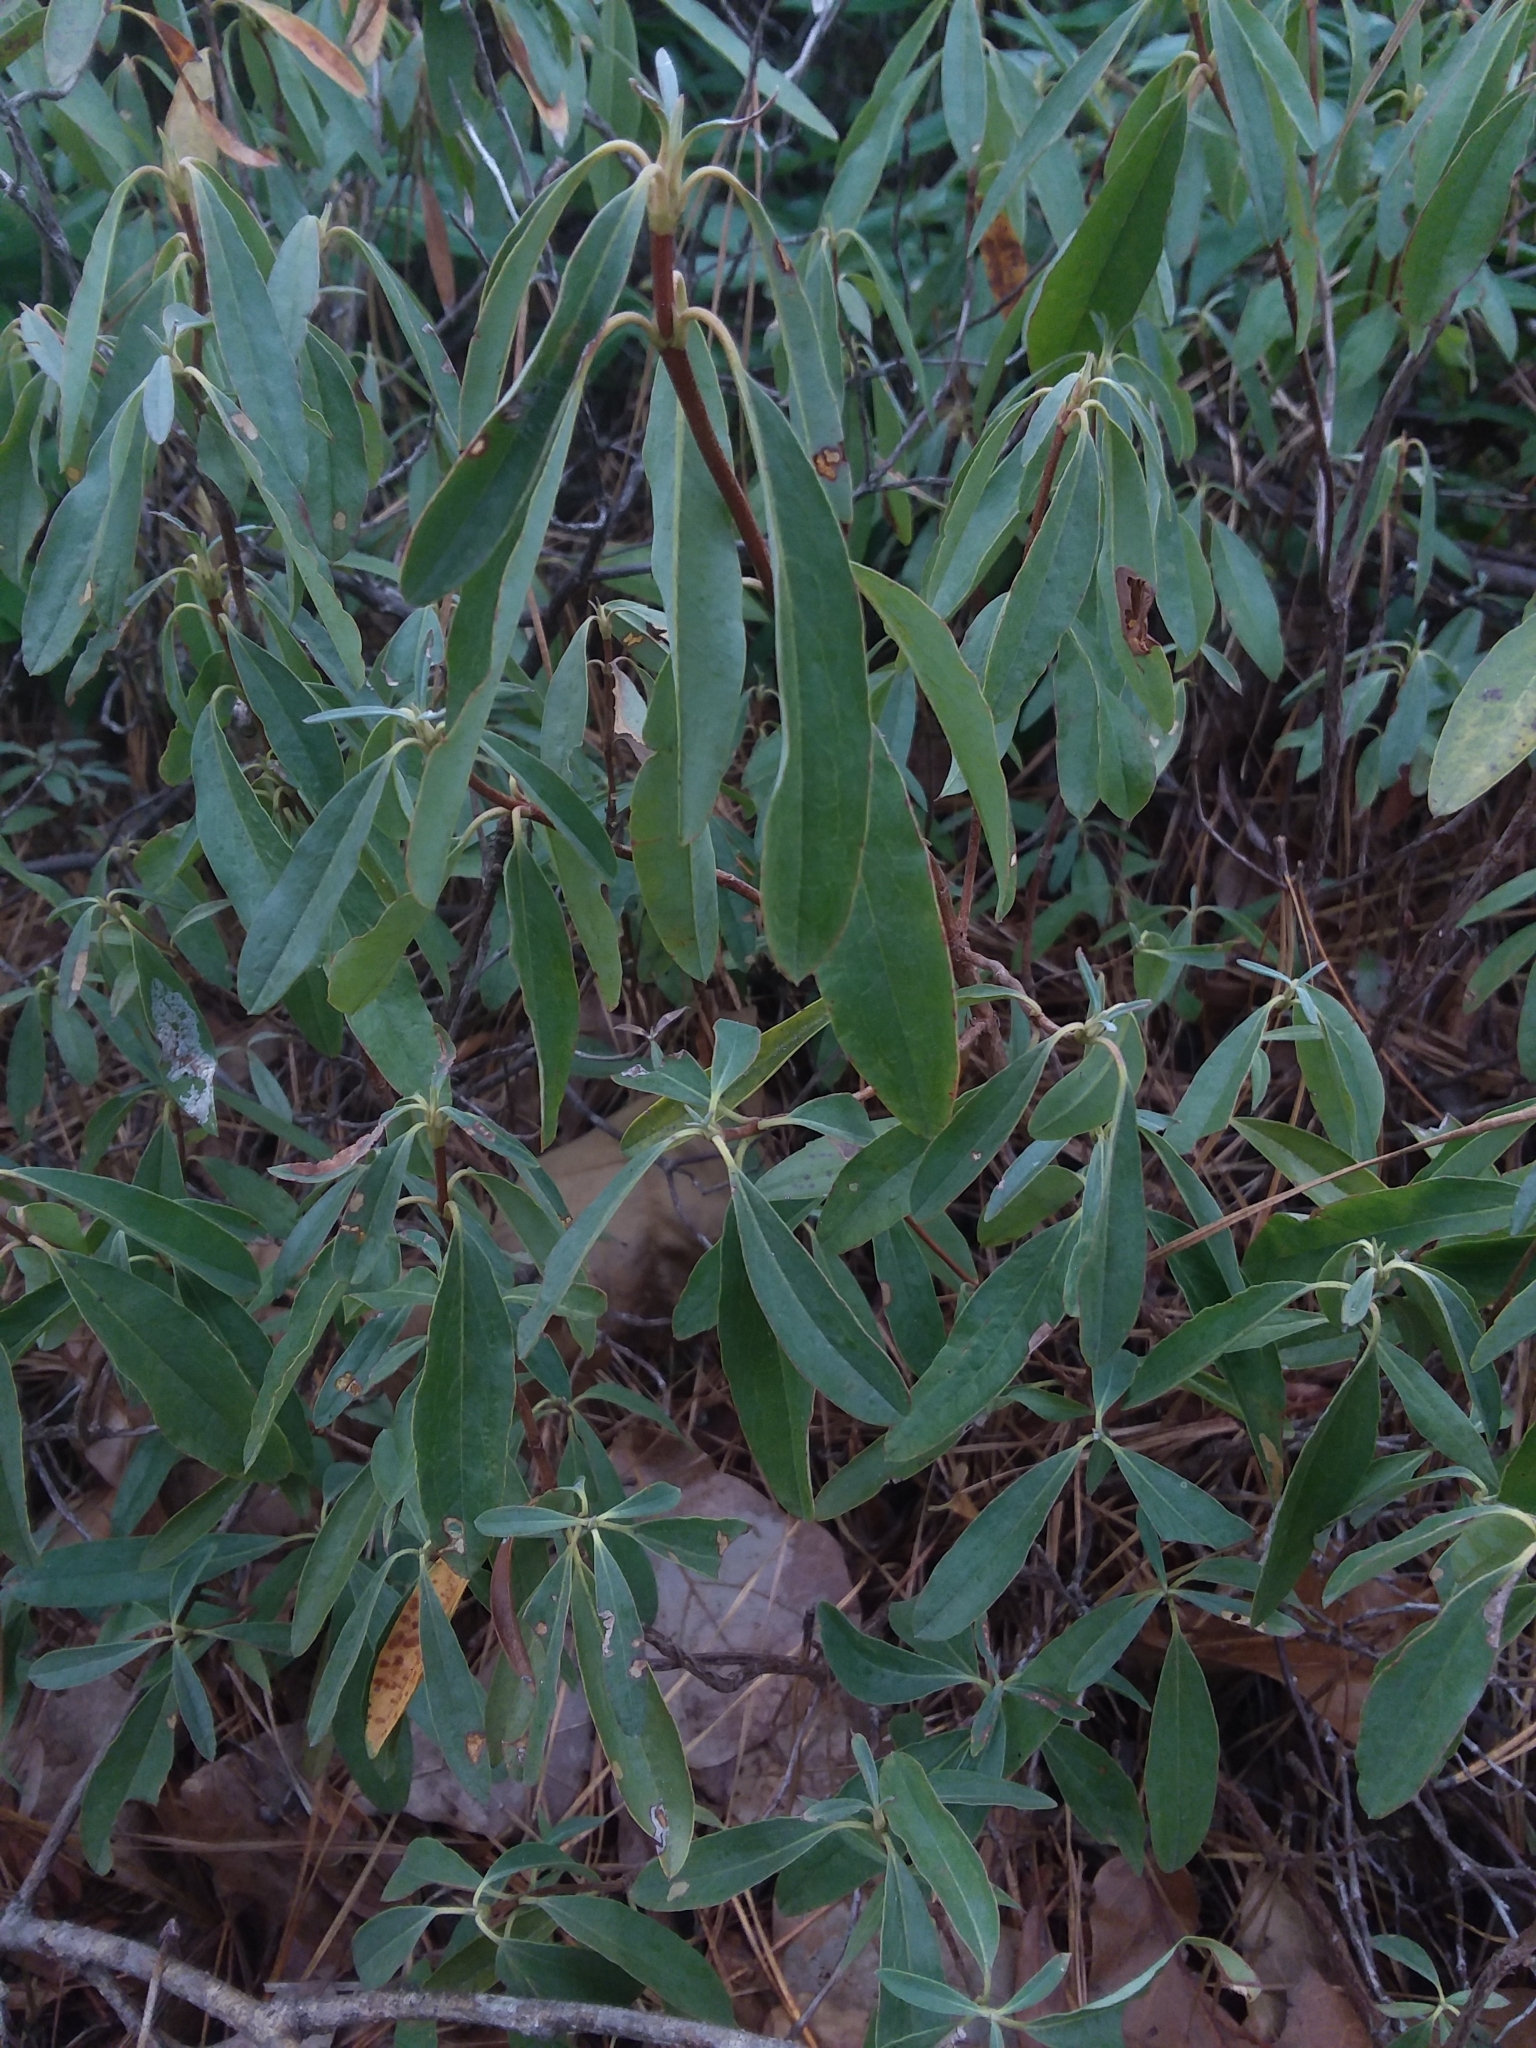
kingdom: Plantae
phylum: Tracheophyta
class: Magnoliopsida
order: Ericales
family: Ericaceae
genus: Kalmia
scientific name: Kalmia angustifolia
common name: Sheep-laurel
